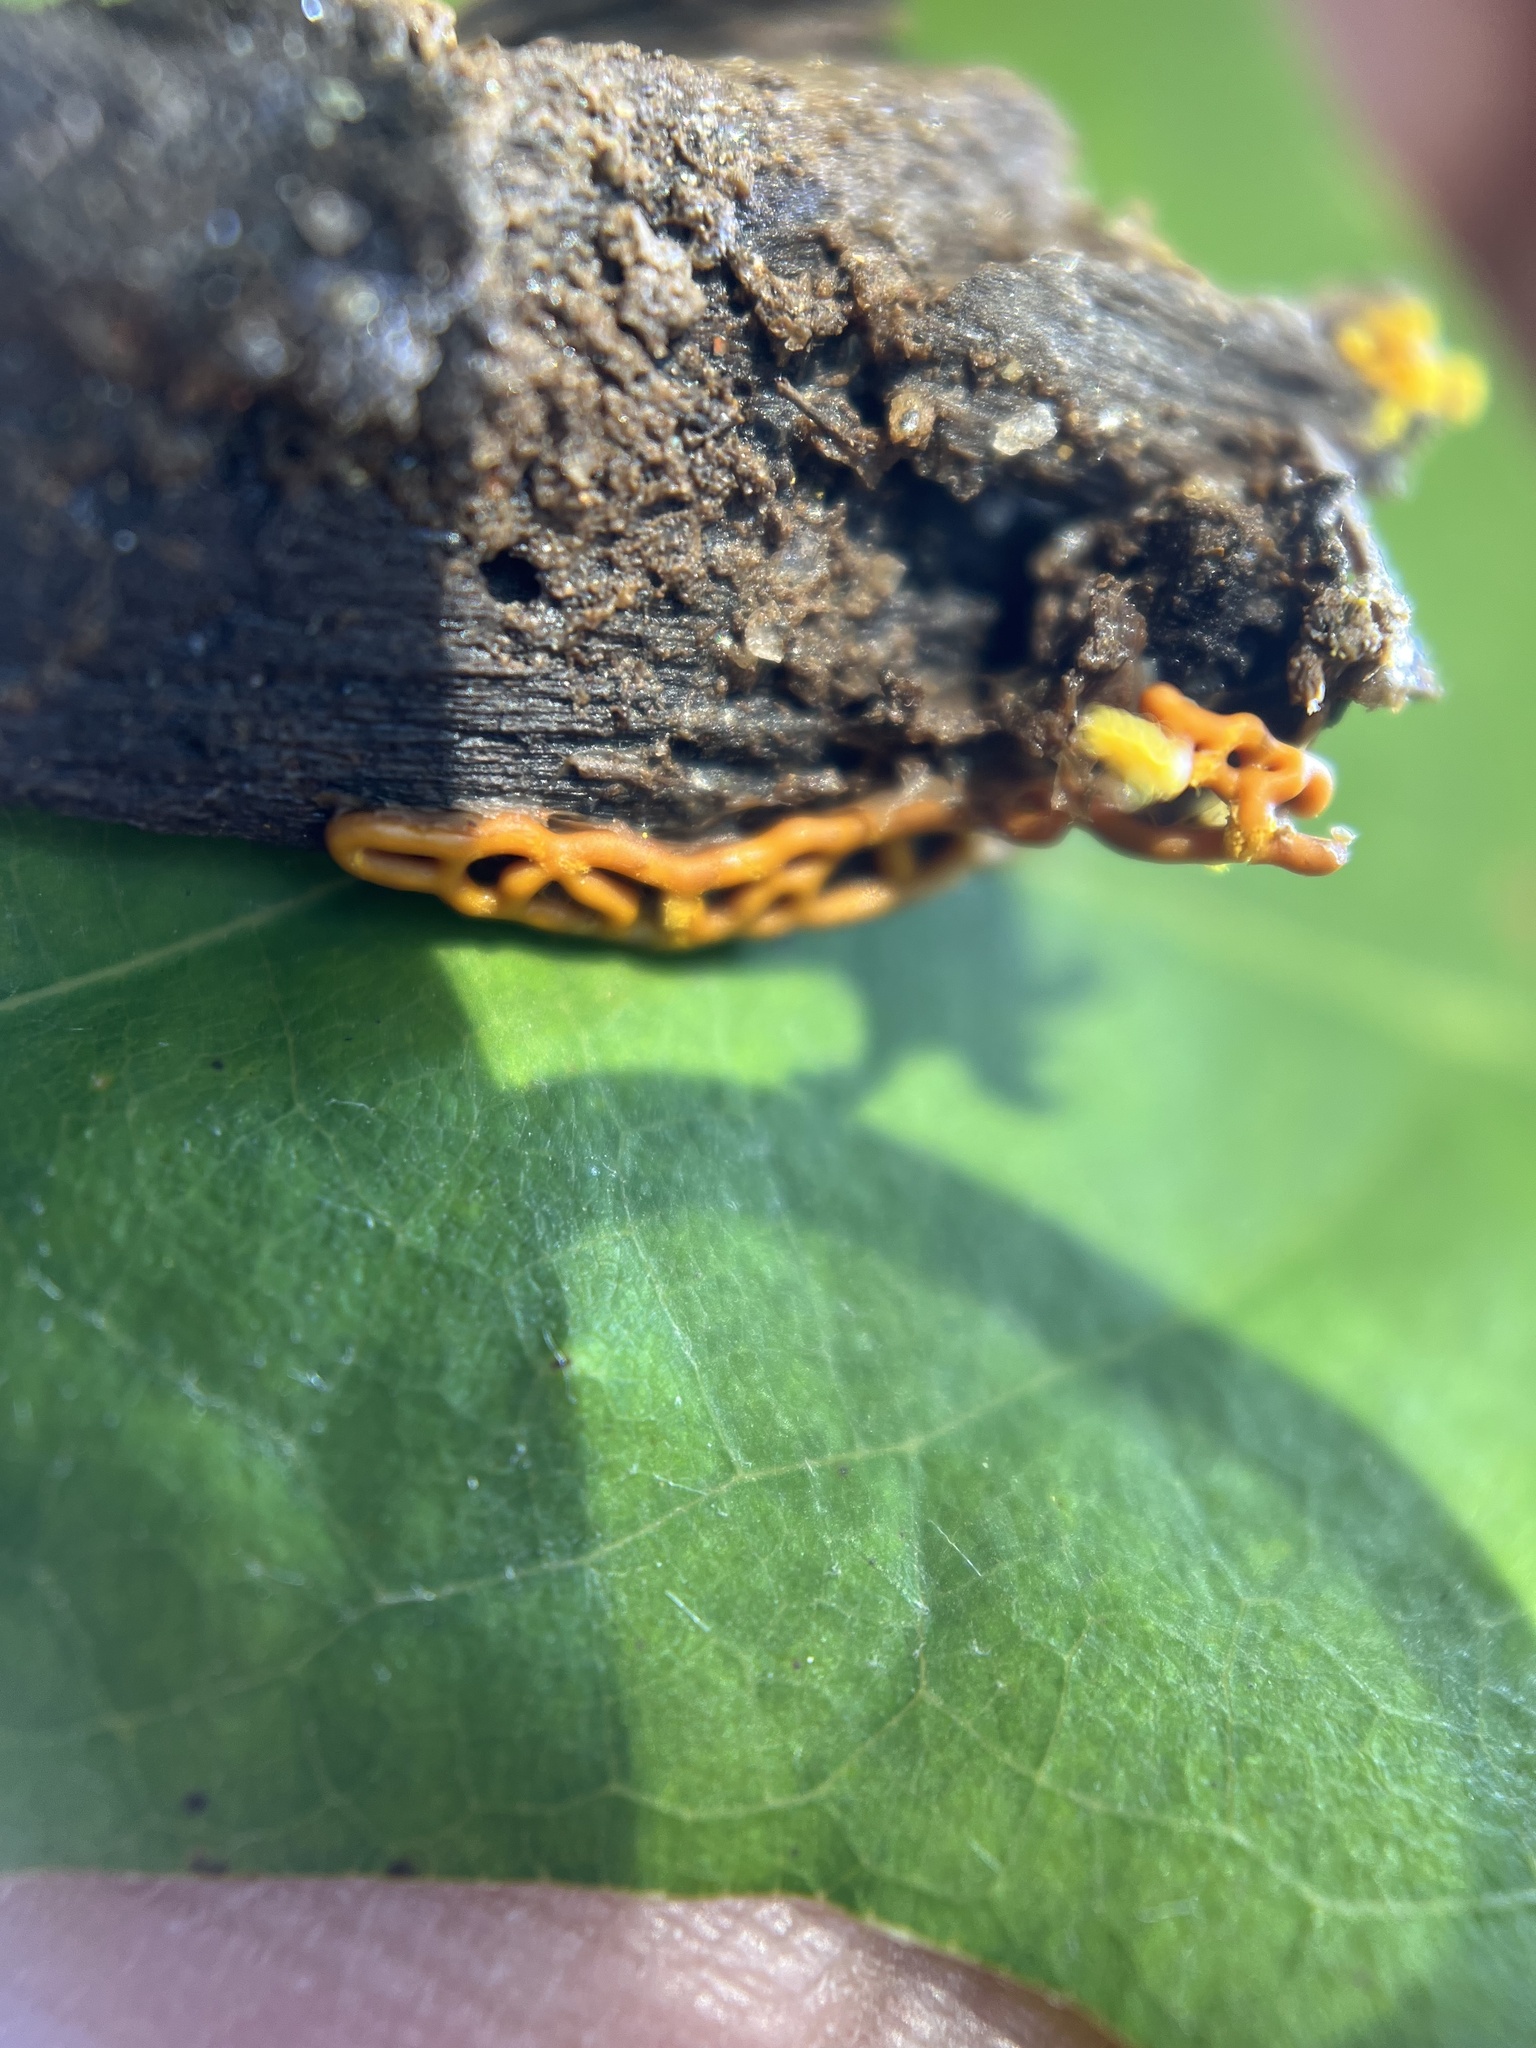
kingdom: Protozoa
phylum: Mycetozoa
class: Myxomycetes
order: Trichiales
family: Arcyriaceae
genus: Hemitrichia
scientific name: Hemitrichia serpula
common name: Pretzel slime mold
